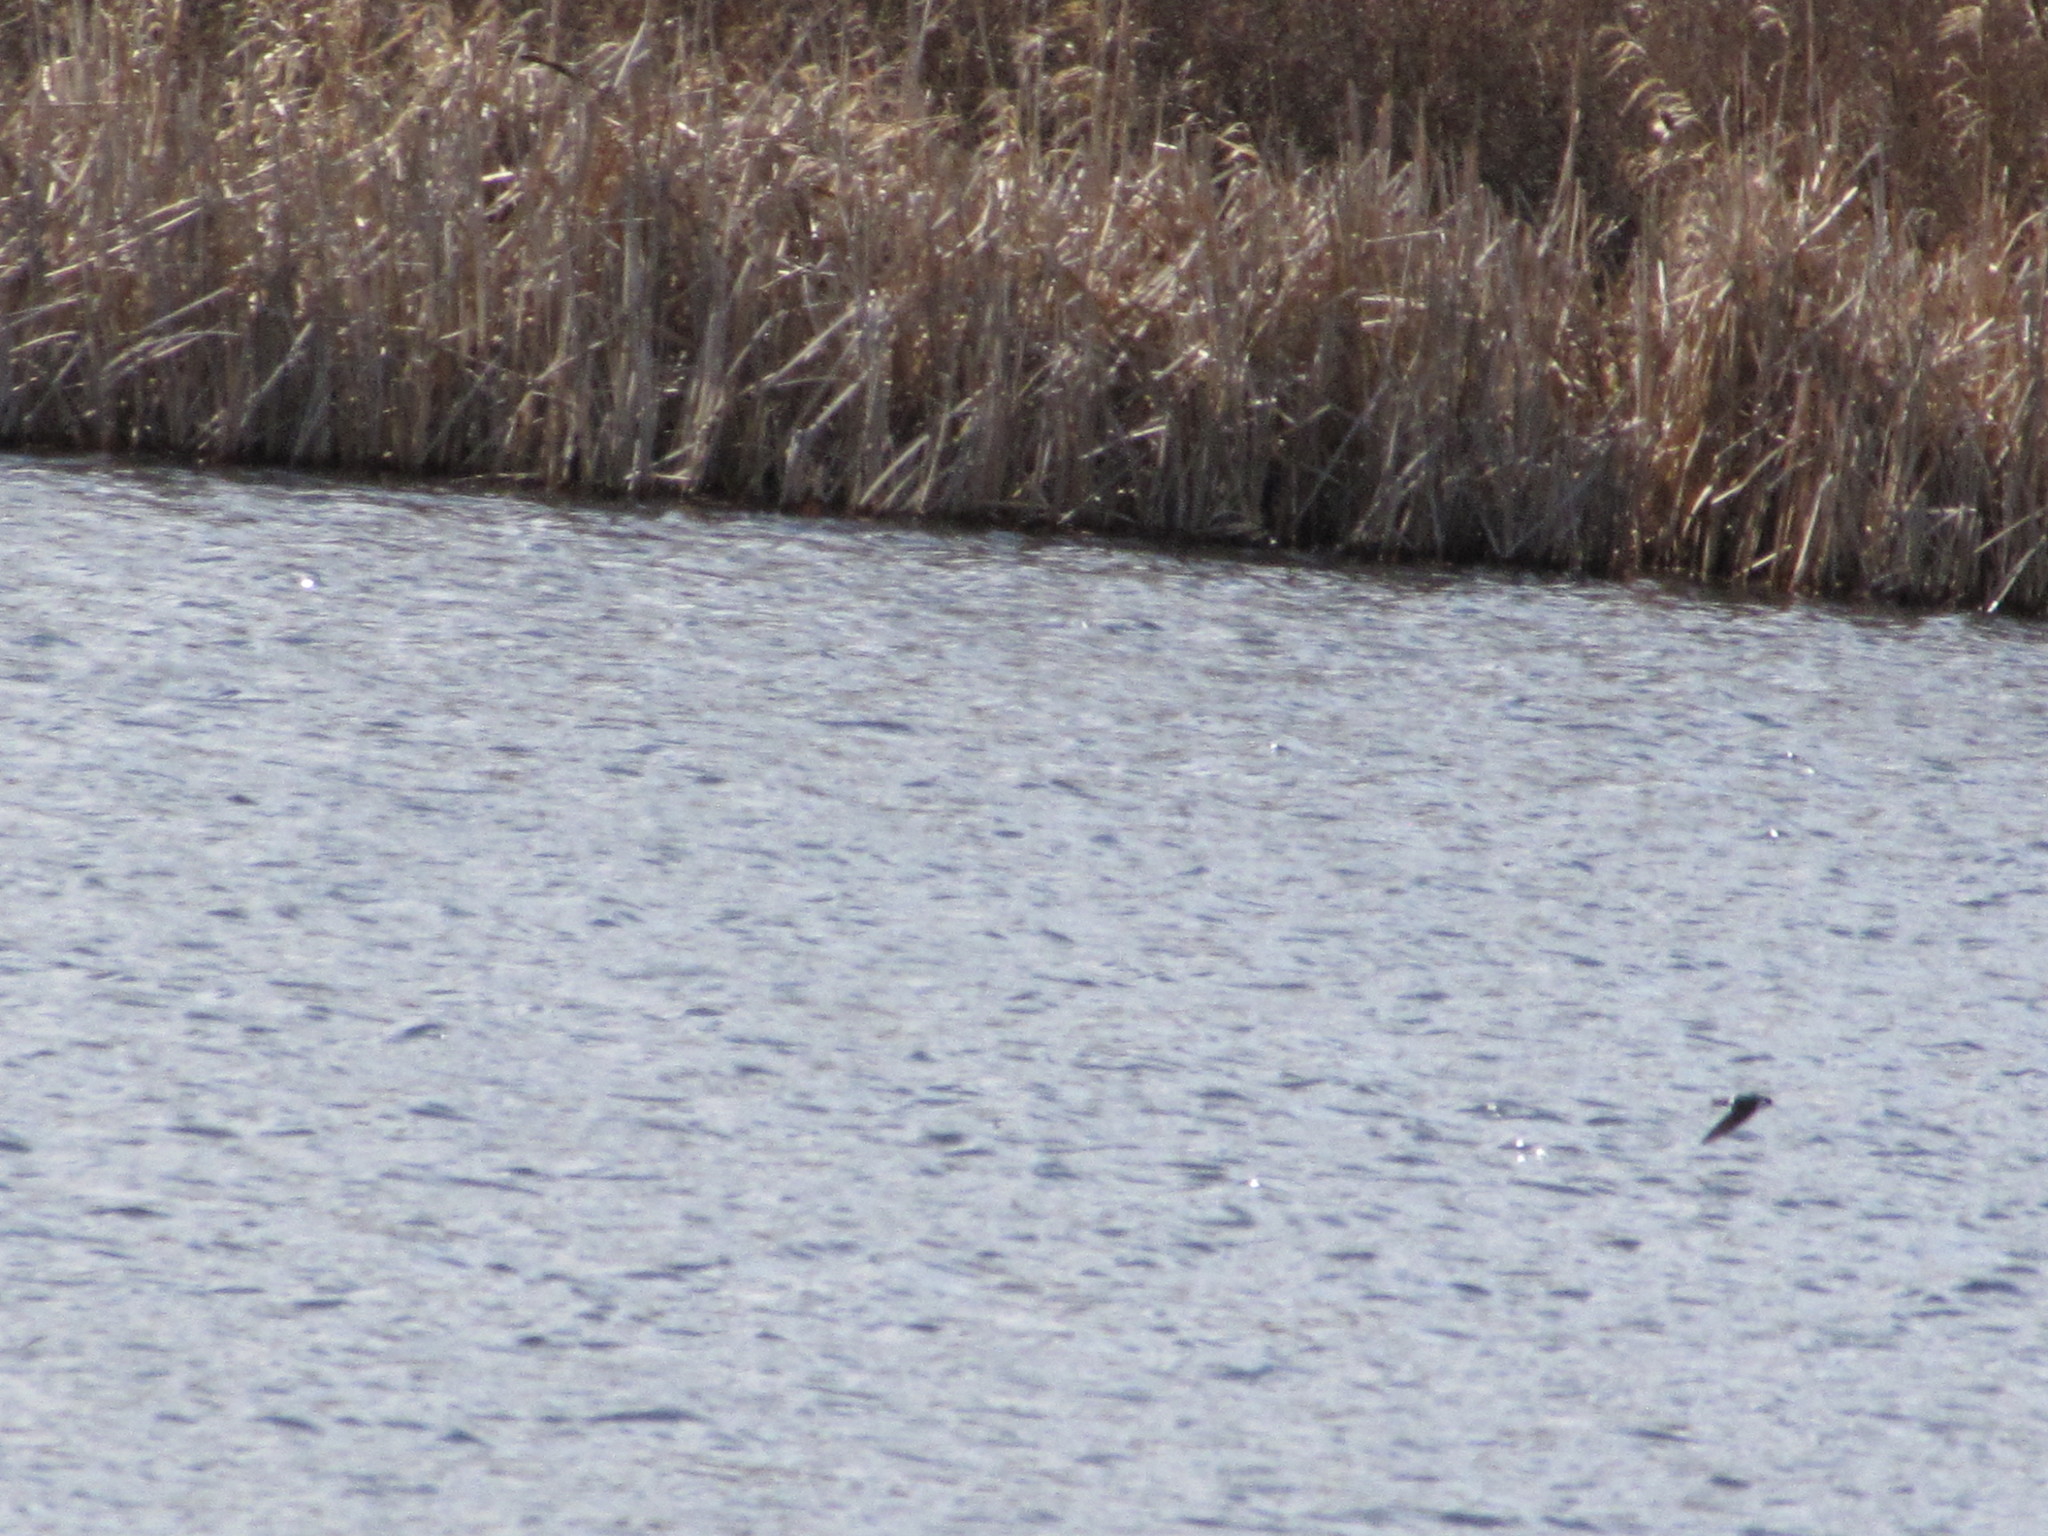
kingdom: Animalia
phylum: Chordata
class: Aves
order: Passeriformes
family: Hirundinidae
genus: Tachycineta
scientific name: Tachycineta thalassina
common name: Violet-green swallow
